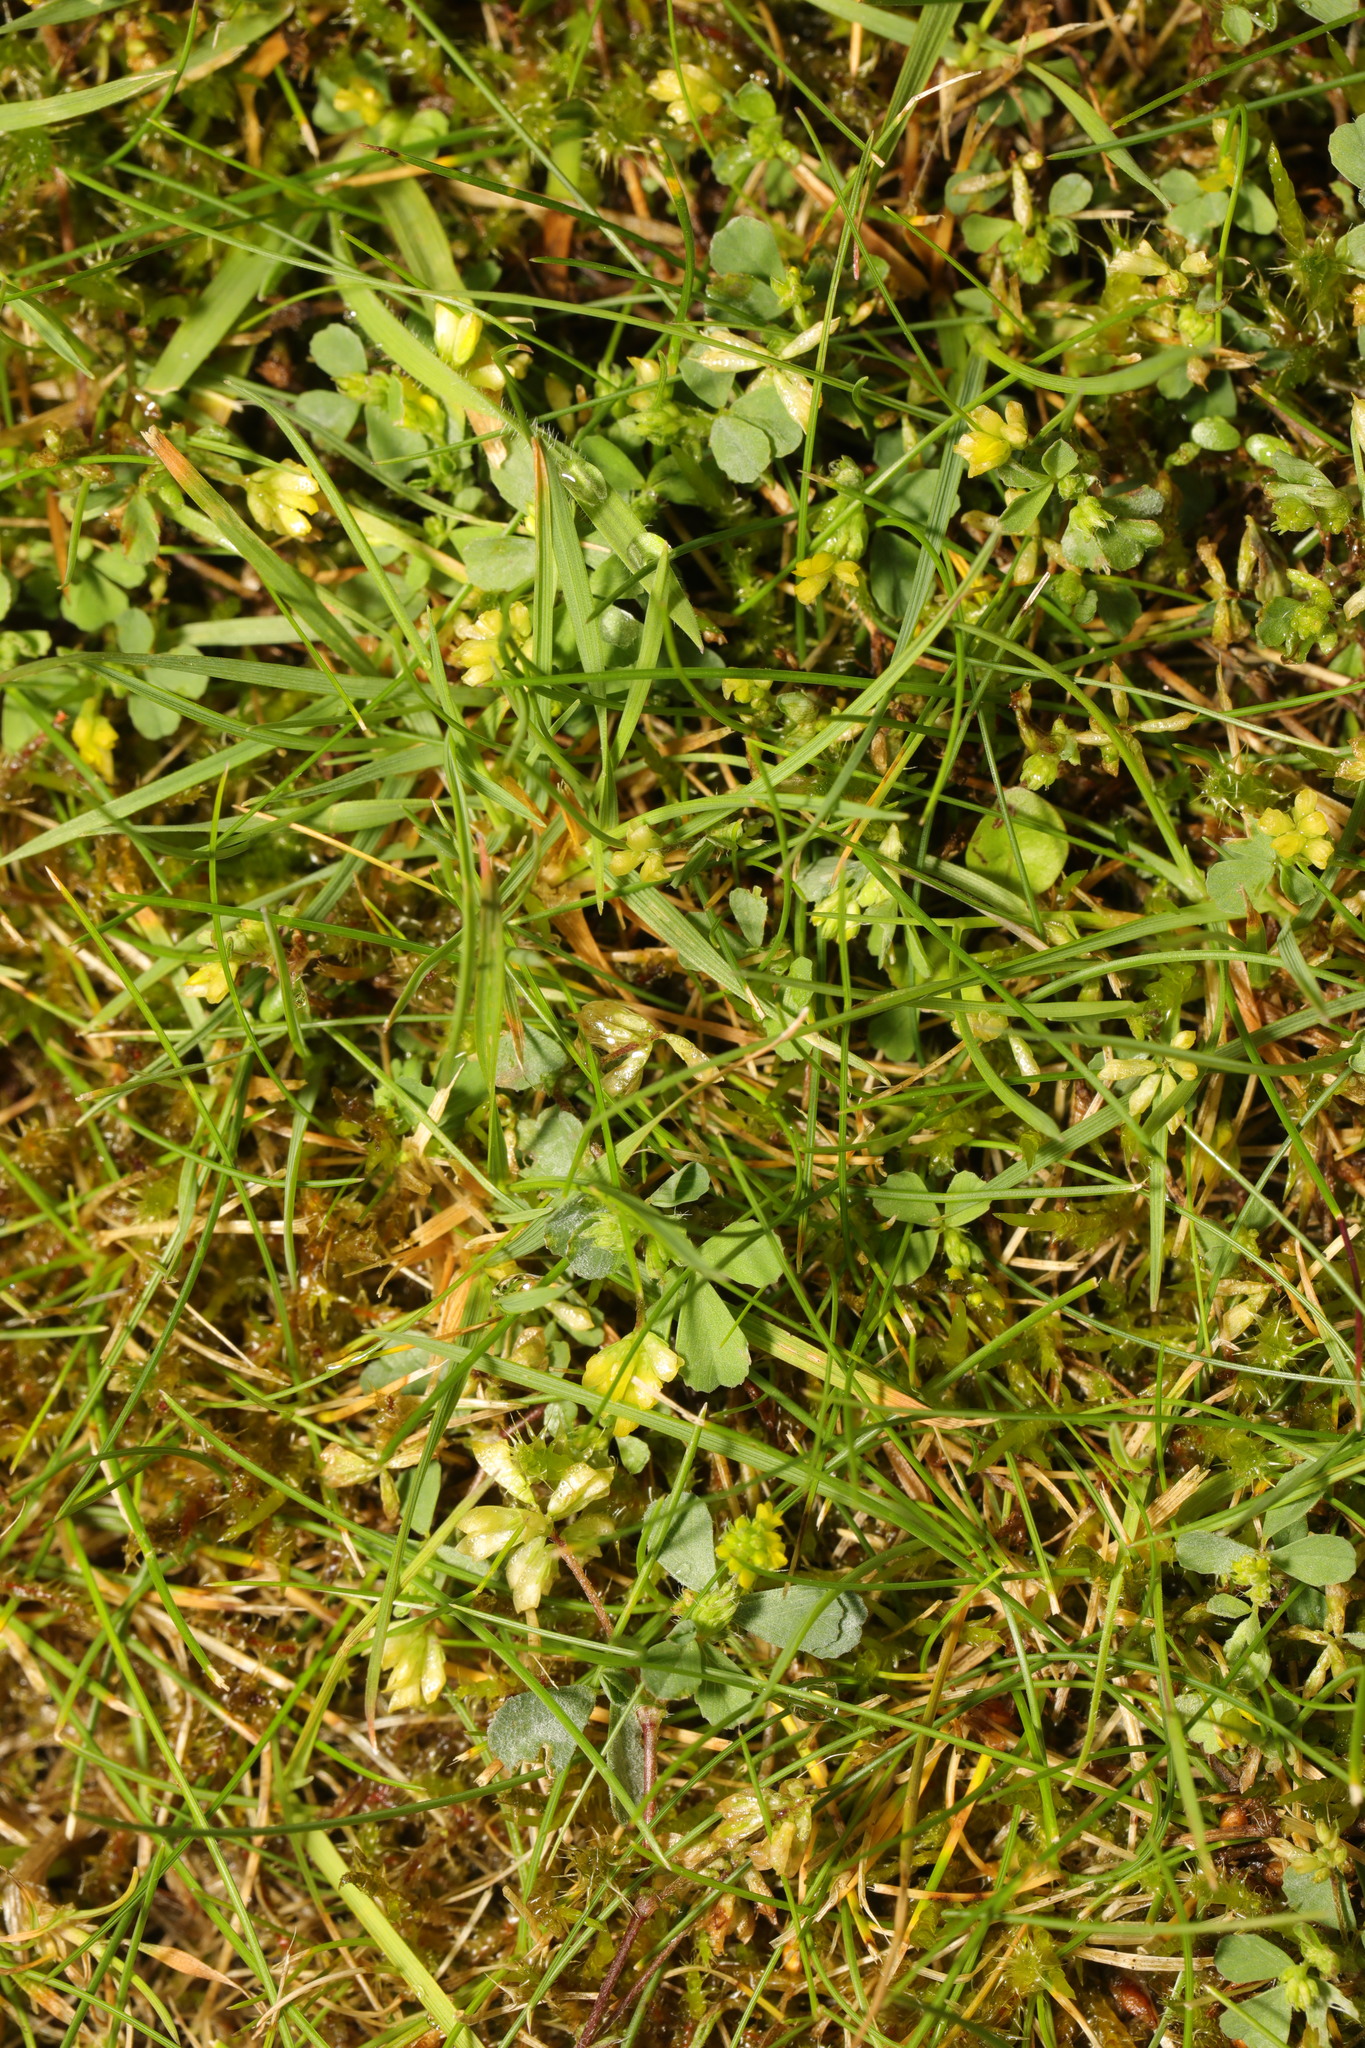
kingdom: Plantae
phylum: Tracheophyta
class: Magnoliopsida
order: Fabales
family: Fabaceae
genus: Trifolium
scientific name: Trifolium dubium
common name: Suckling clover
